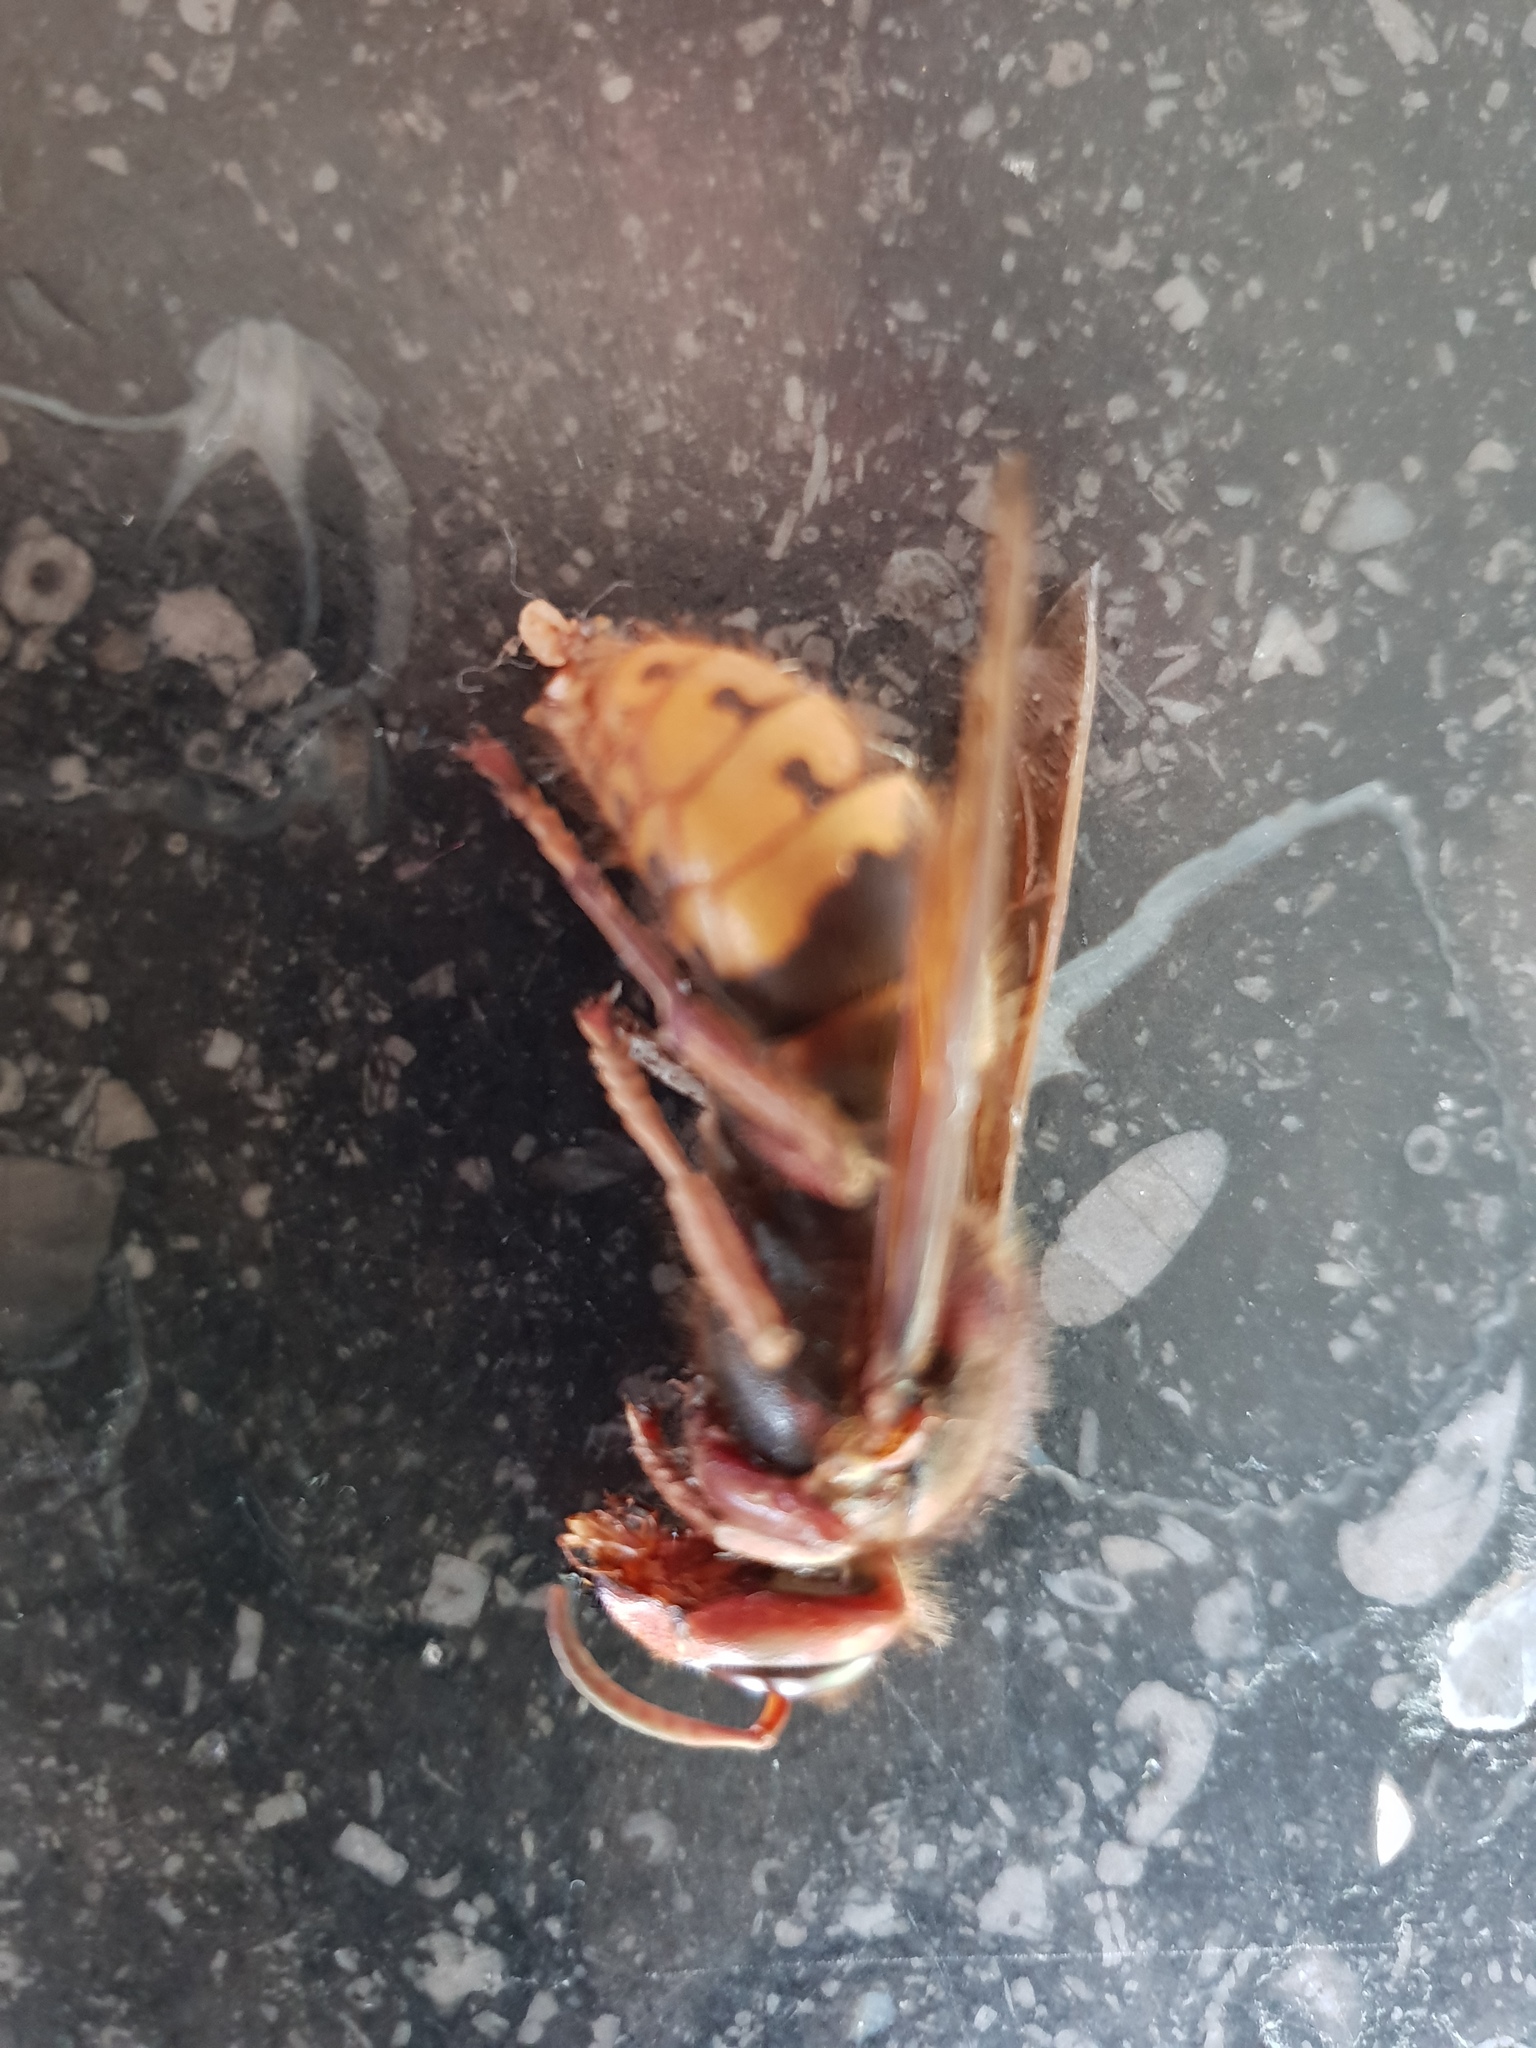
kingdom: Animalia
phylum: Arthropoda
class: Insecta
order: Hymenoptera
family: Vespidae
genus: Vespa
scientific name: Vespa crabro
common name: Hornet
